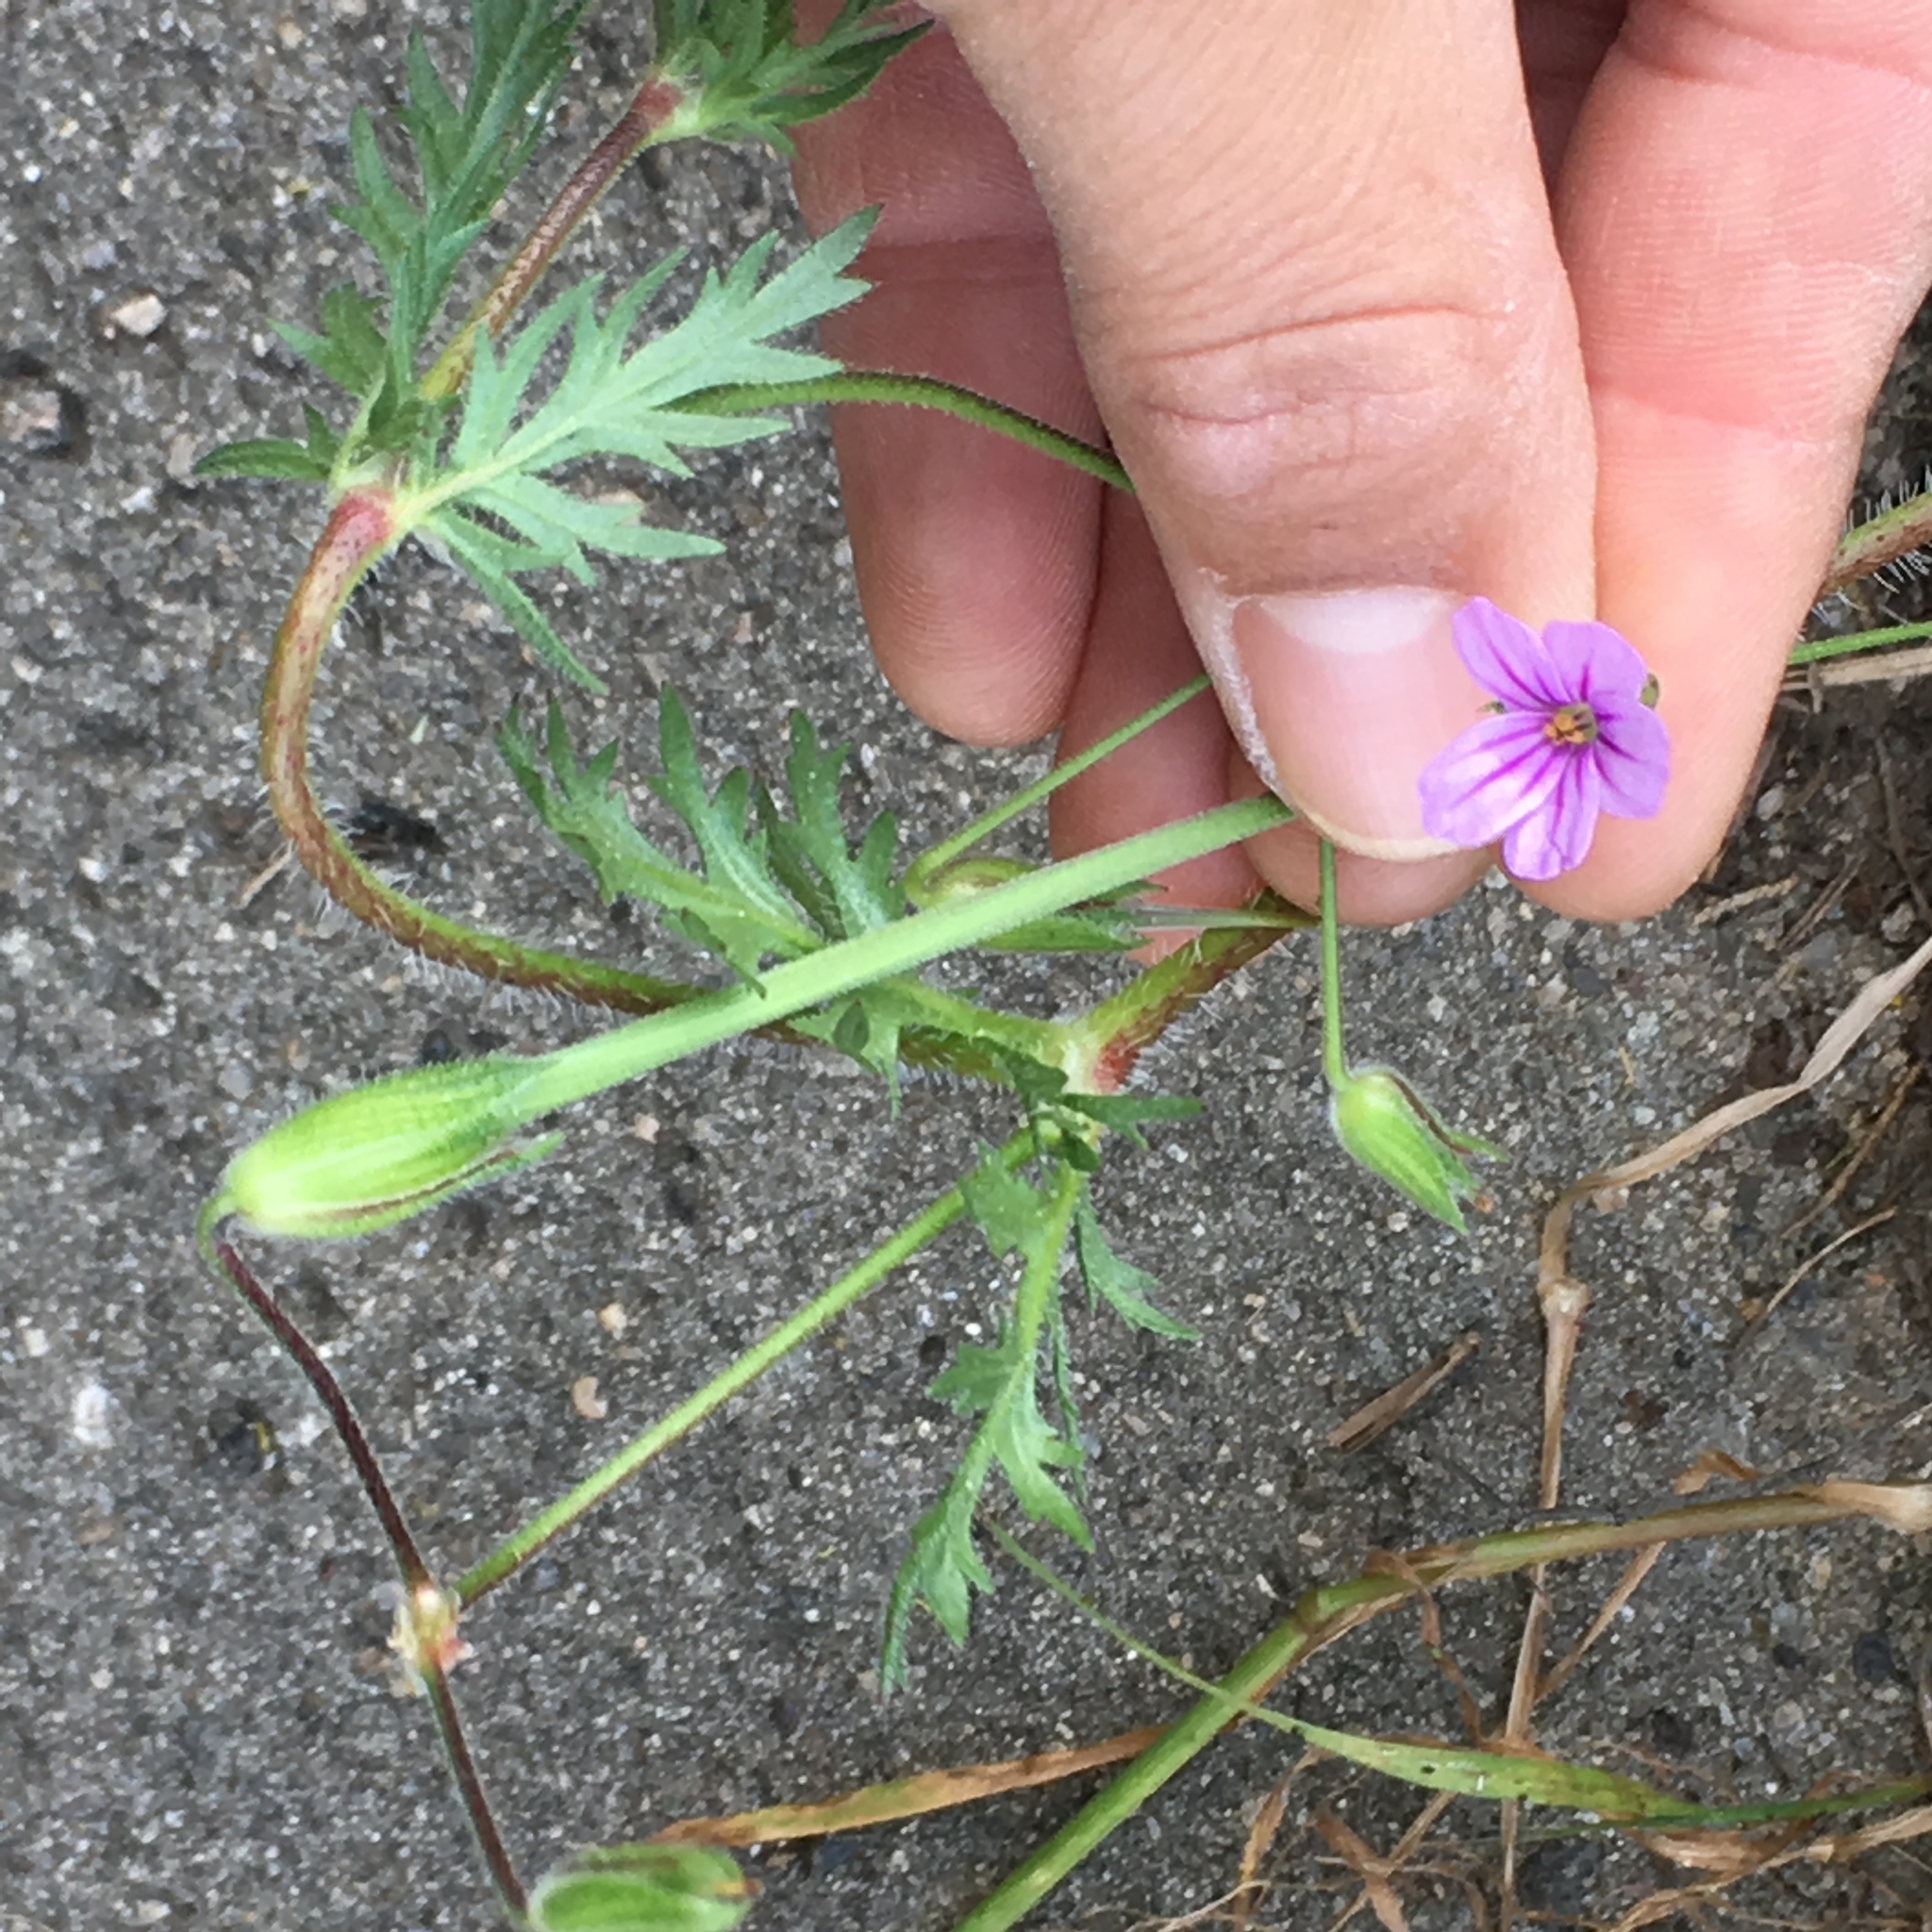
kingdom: Plantae
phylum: Tracheophyta
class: Magnoliopsida
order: Geraniales
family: Geraniaceae
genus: Erodium
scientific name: Erodium botrys
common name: Mediterranean stork's-bill
